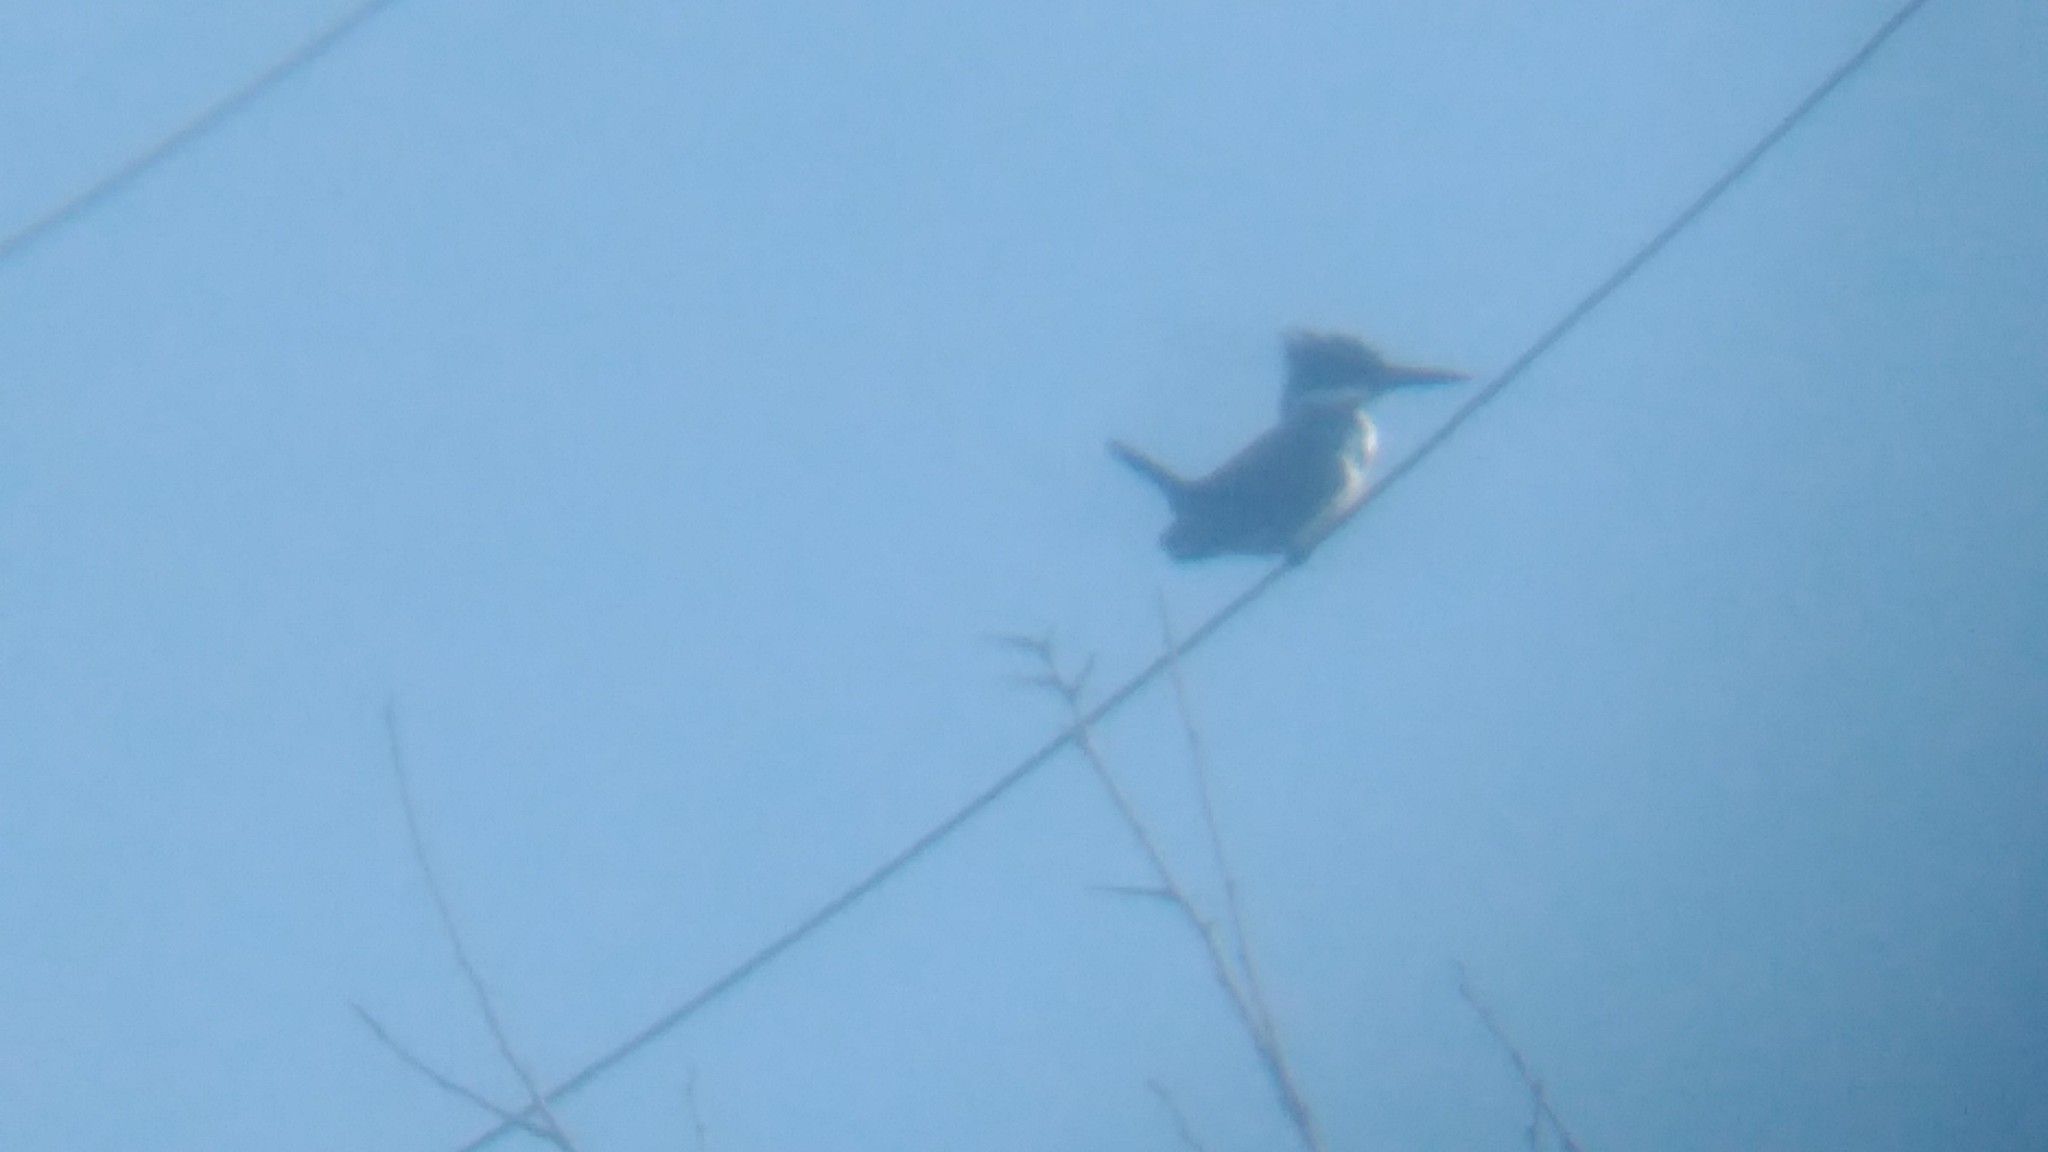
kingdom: Animalia
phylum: Chordata
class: Aves
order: Coraciiformes
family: Alcedinidae
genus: Chloroceryle
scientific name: Chloroceryle amazona
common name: Amazon kingfisher
